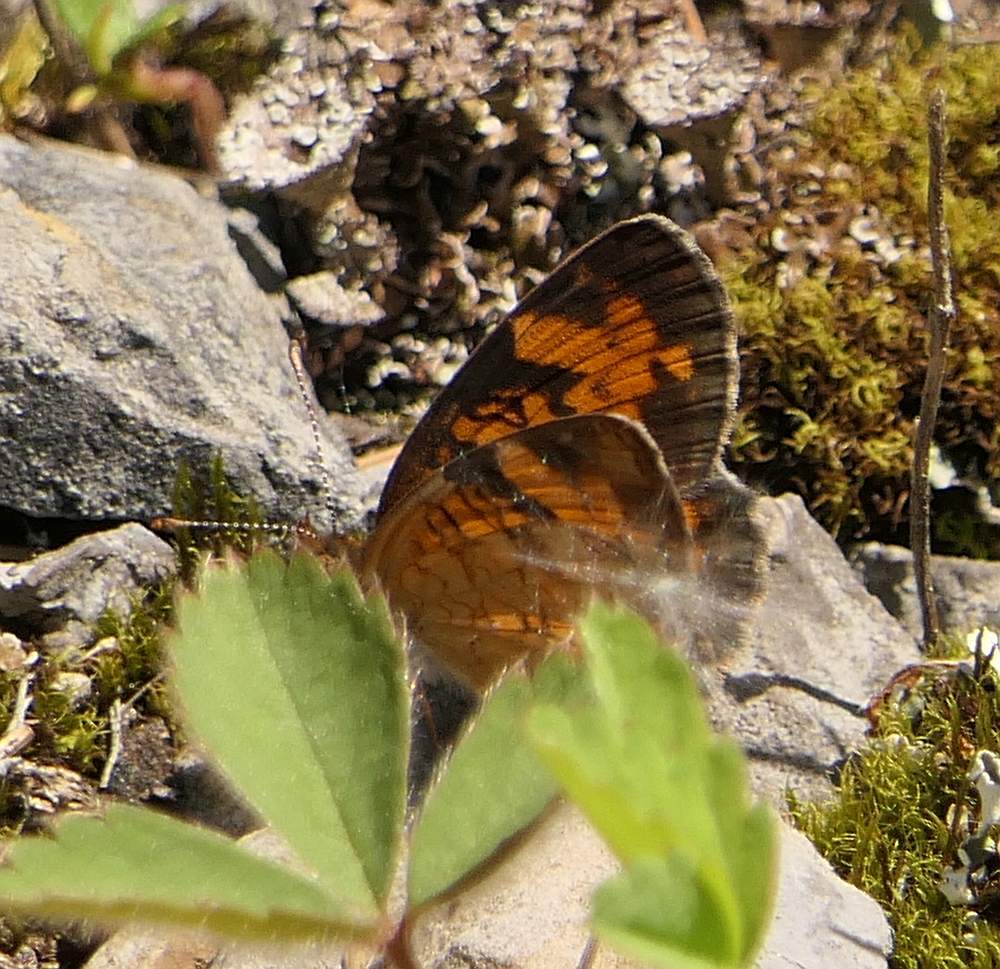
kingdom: Animalia
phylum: Arthropoda
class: Insecta
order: Lepidoptera
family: Nymphalidae
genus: Phyciodes
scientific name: Phyciodes tharos
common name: Pearl crescent
